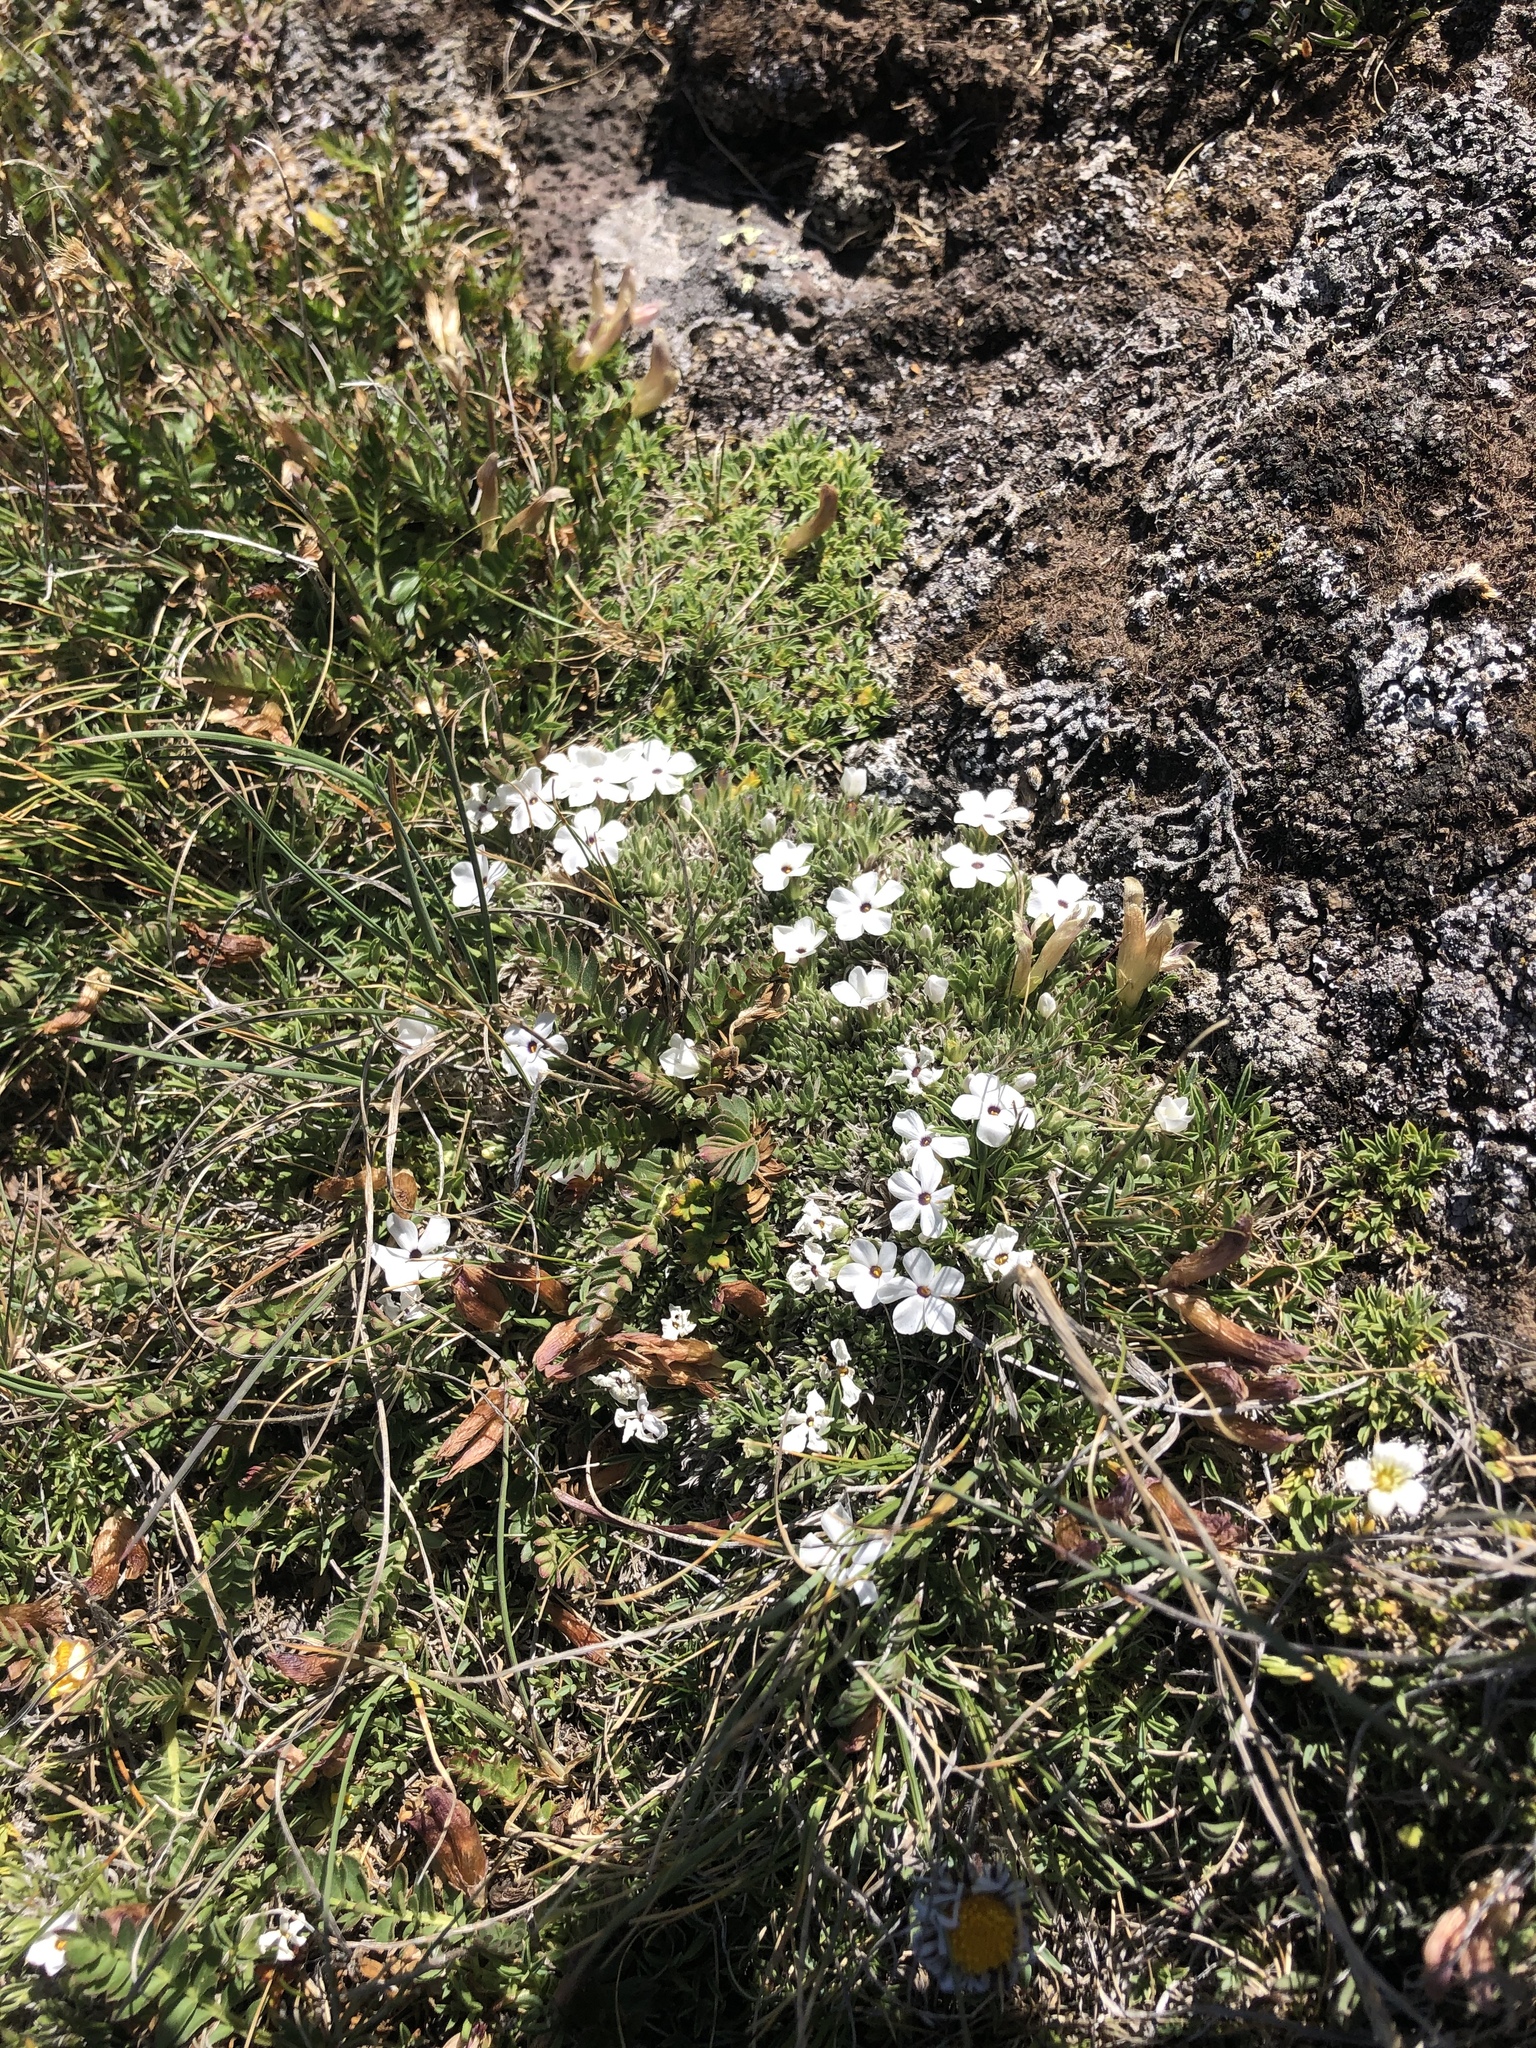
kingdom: Plantae
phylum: Tracheophyta
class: Magnoliopsida
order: Ericales
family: Polemoniaceae
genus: Phlox
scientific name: Phlox condensata
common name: Compact phlox
